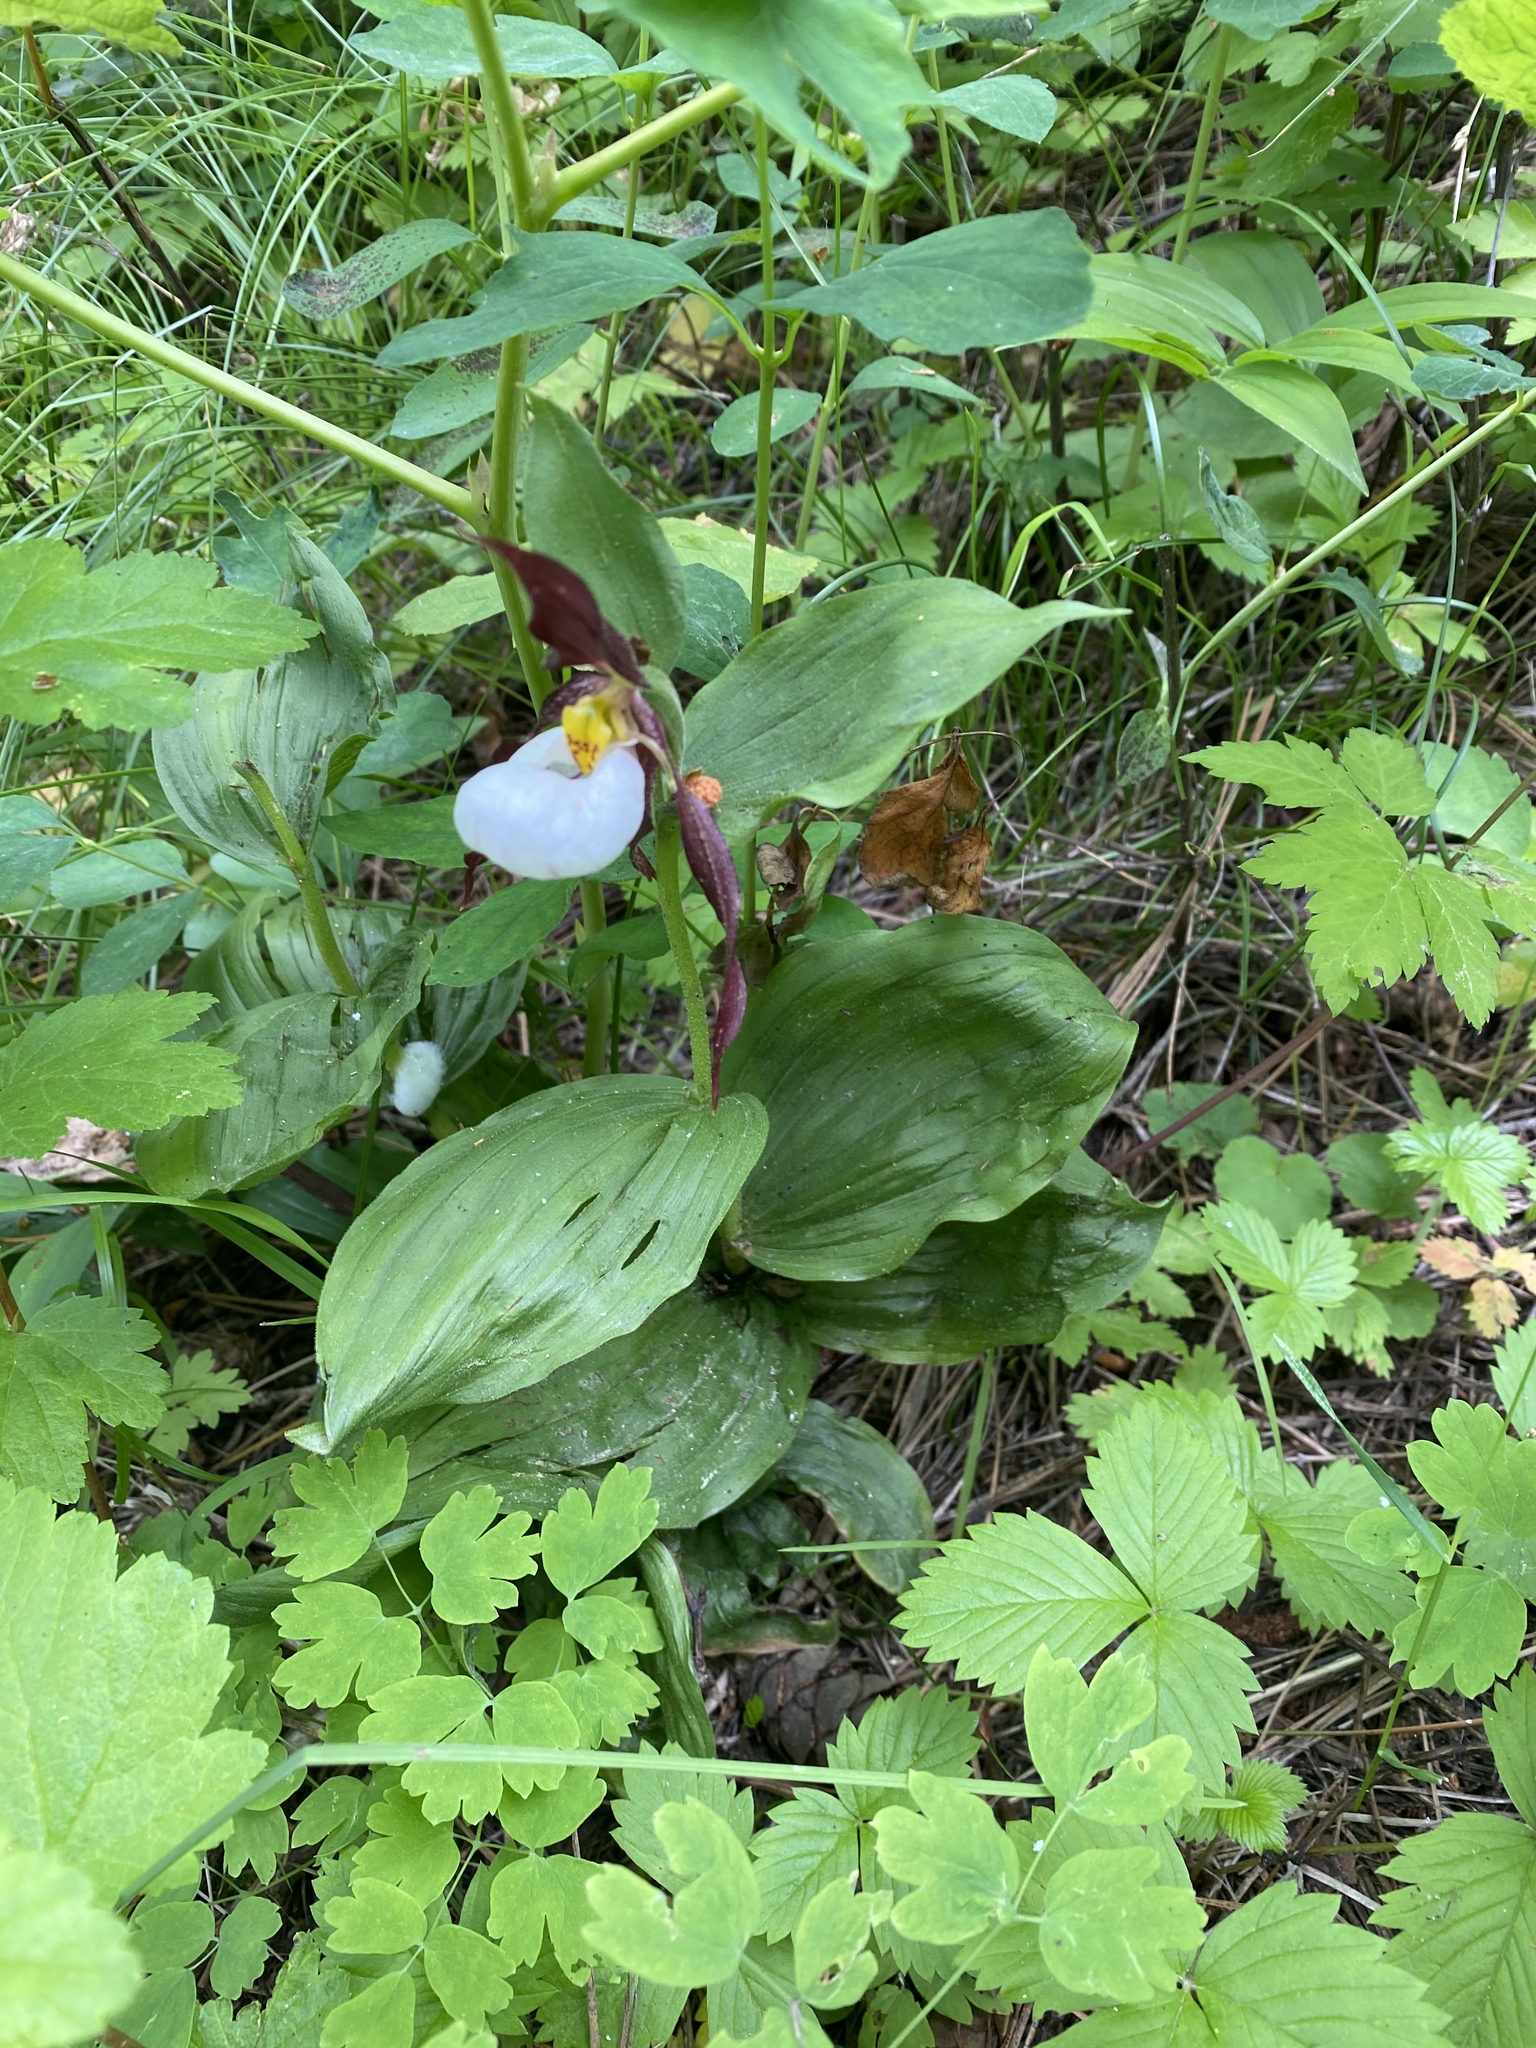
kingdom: Plantae
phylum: Tracheophyta
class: Liliopsida
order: Asparagales
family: Orchidaceae
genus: Cypripedium
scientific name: Cypripedium montanum
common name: Mountain lady's-slipper
